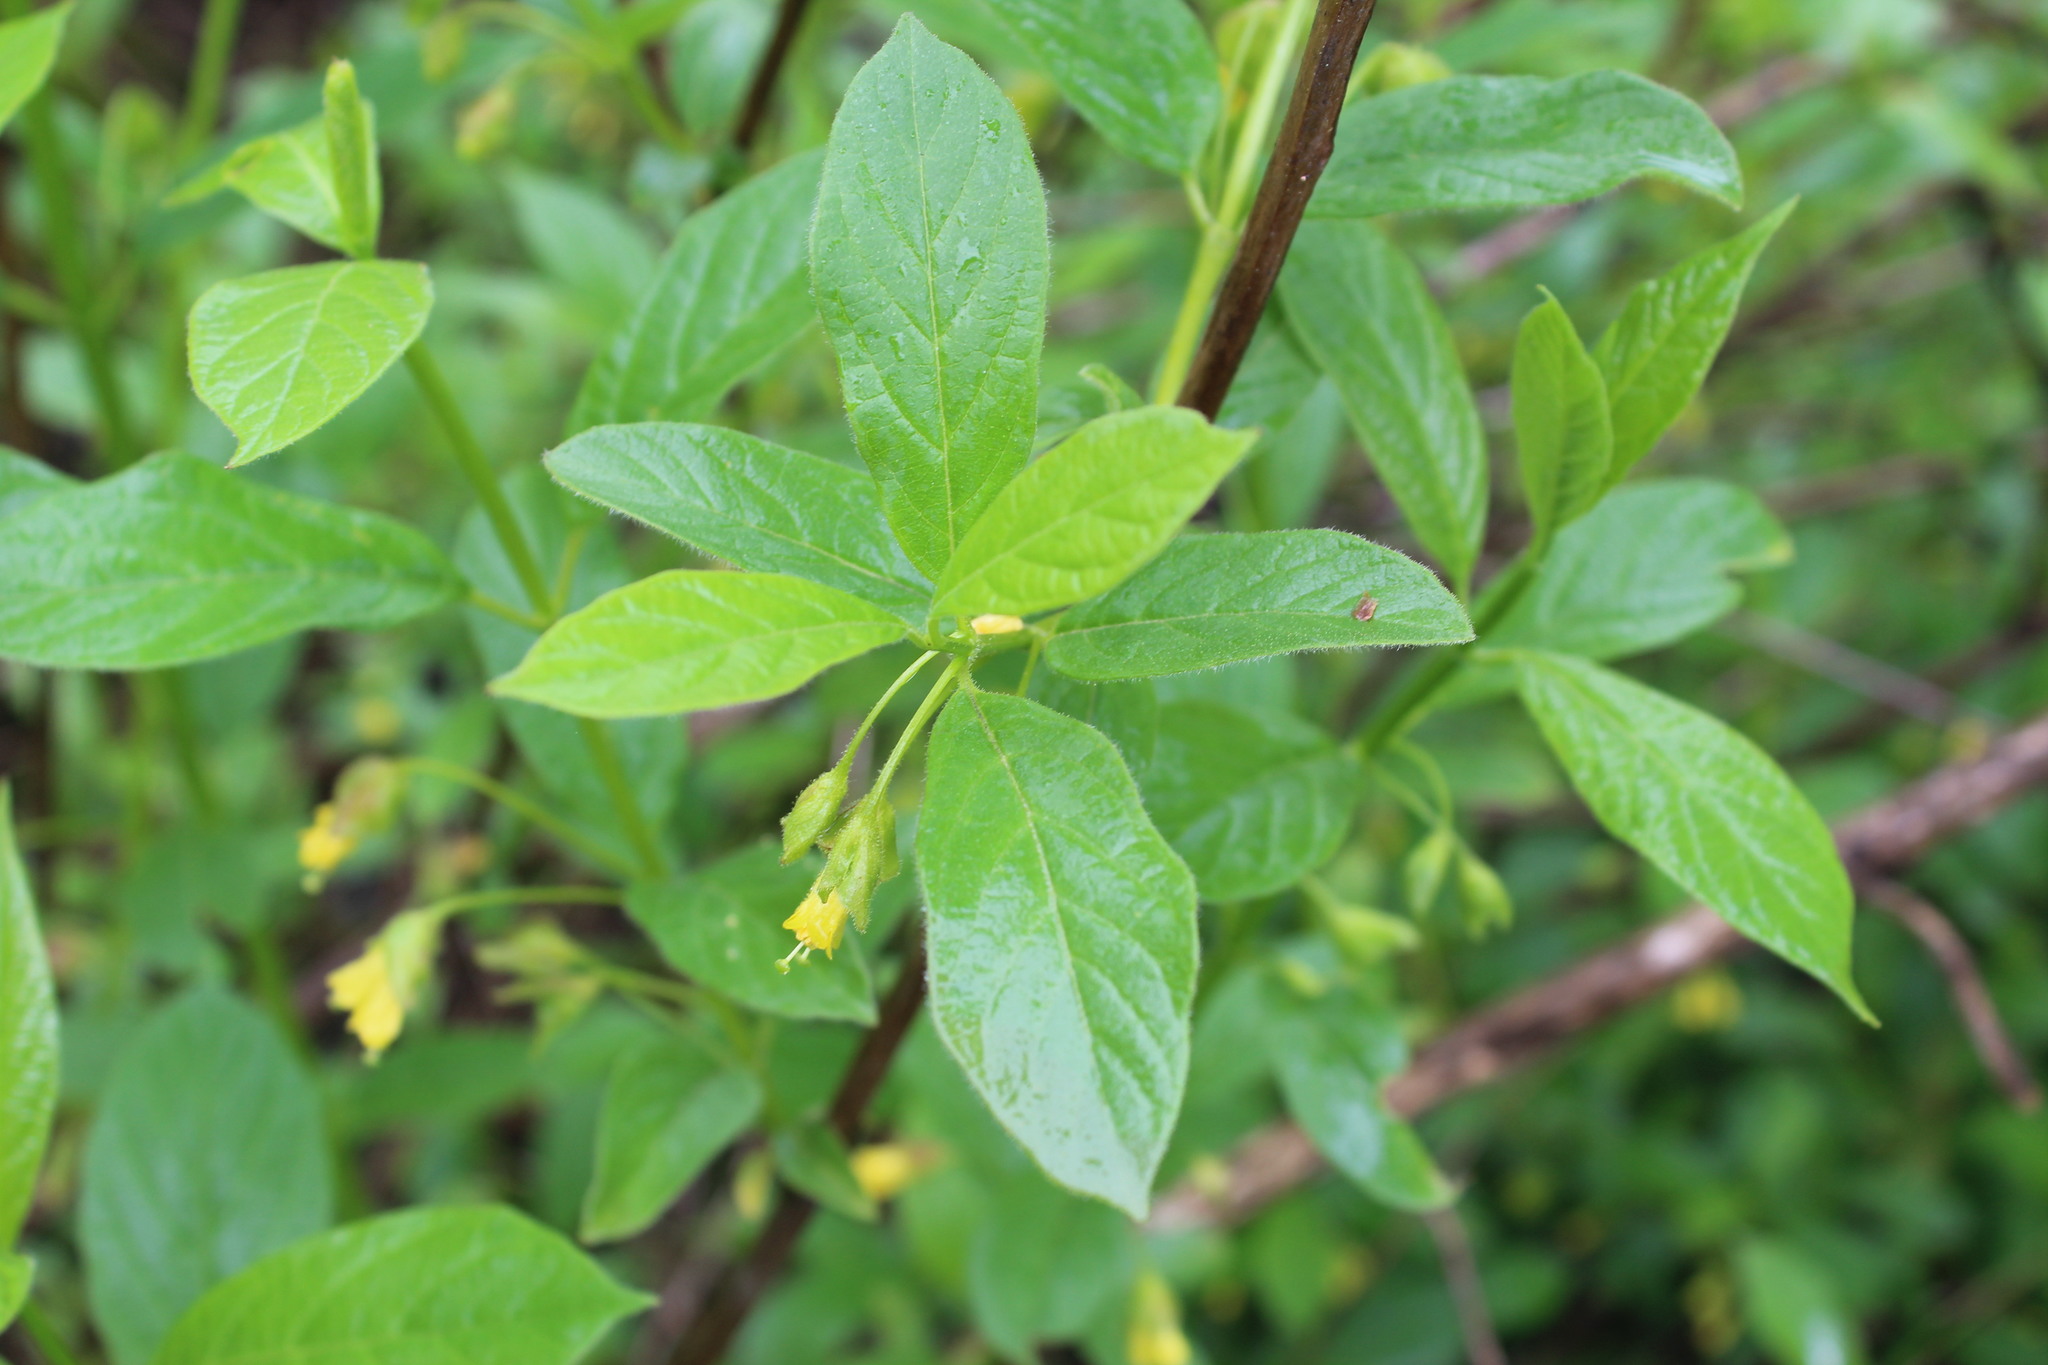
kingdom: Plantae
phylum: Tracheophyta
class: Magnoliopsida
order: Dipsacales
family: Caprifoliaceae
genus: Lonicera
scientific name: Lonicera involucrata
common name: Californian honeysuckle
